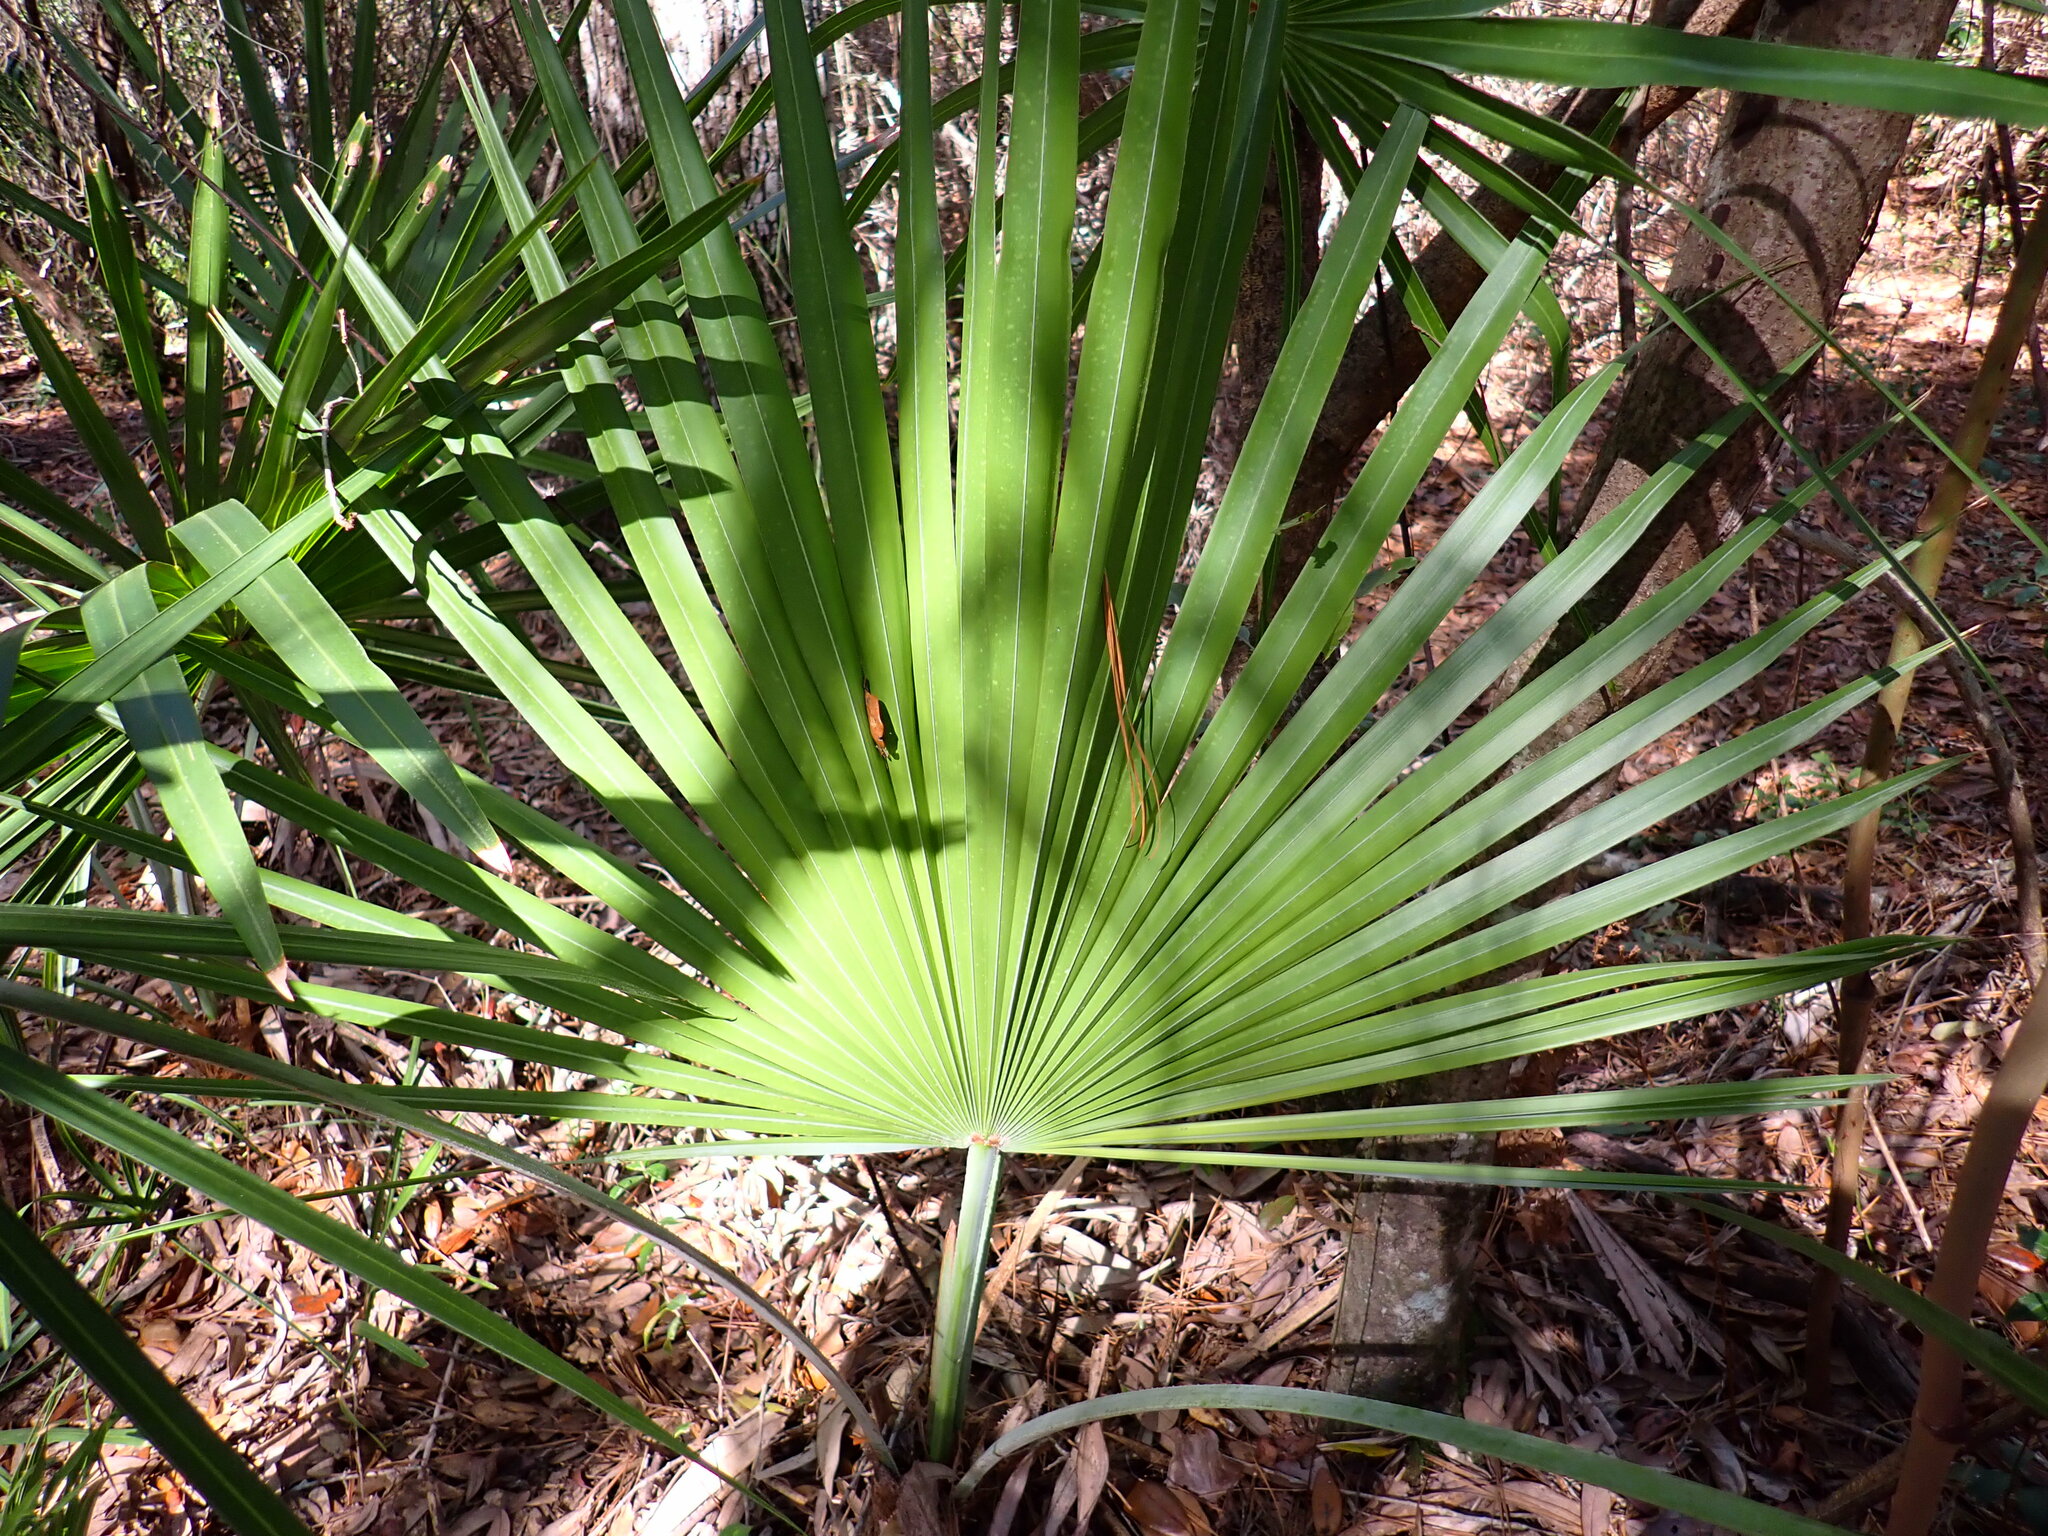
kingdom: Plantae
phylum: Tracheophyta
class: Liliopsida
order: Arecales
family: Arecaceae
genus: Serenoa
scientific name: Serenoa repens
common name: Saw-palmetto
